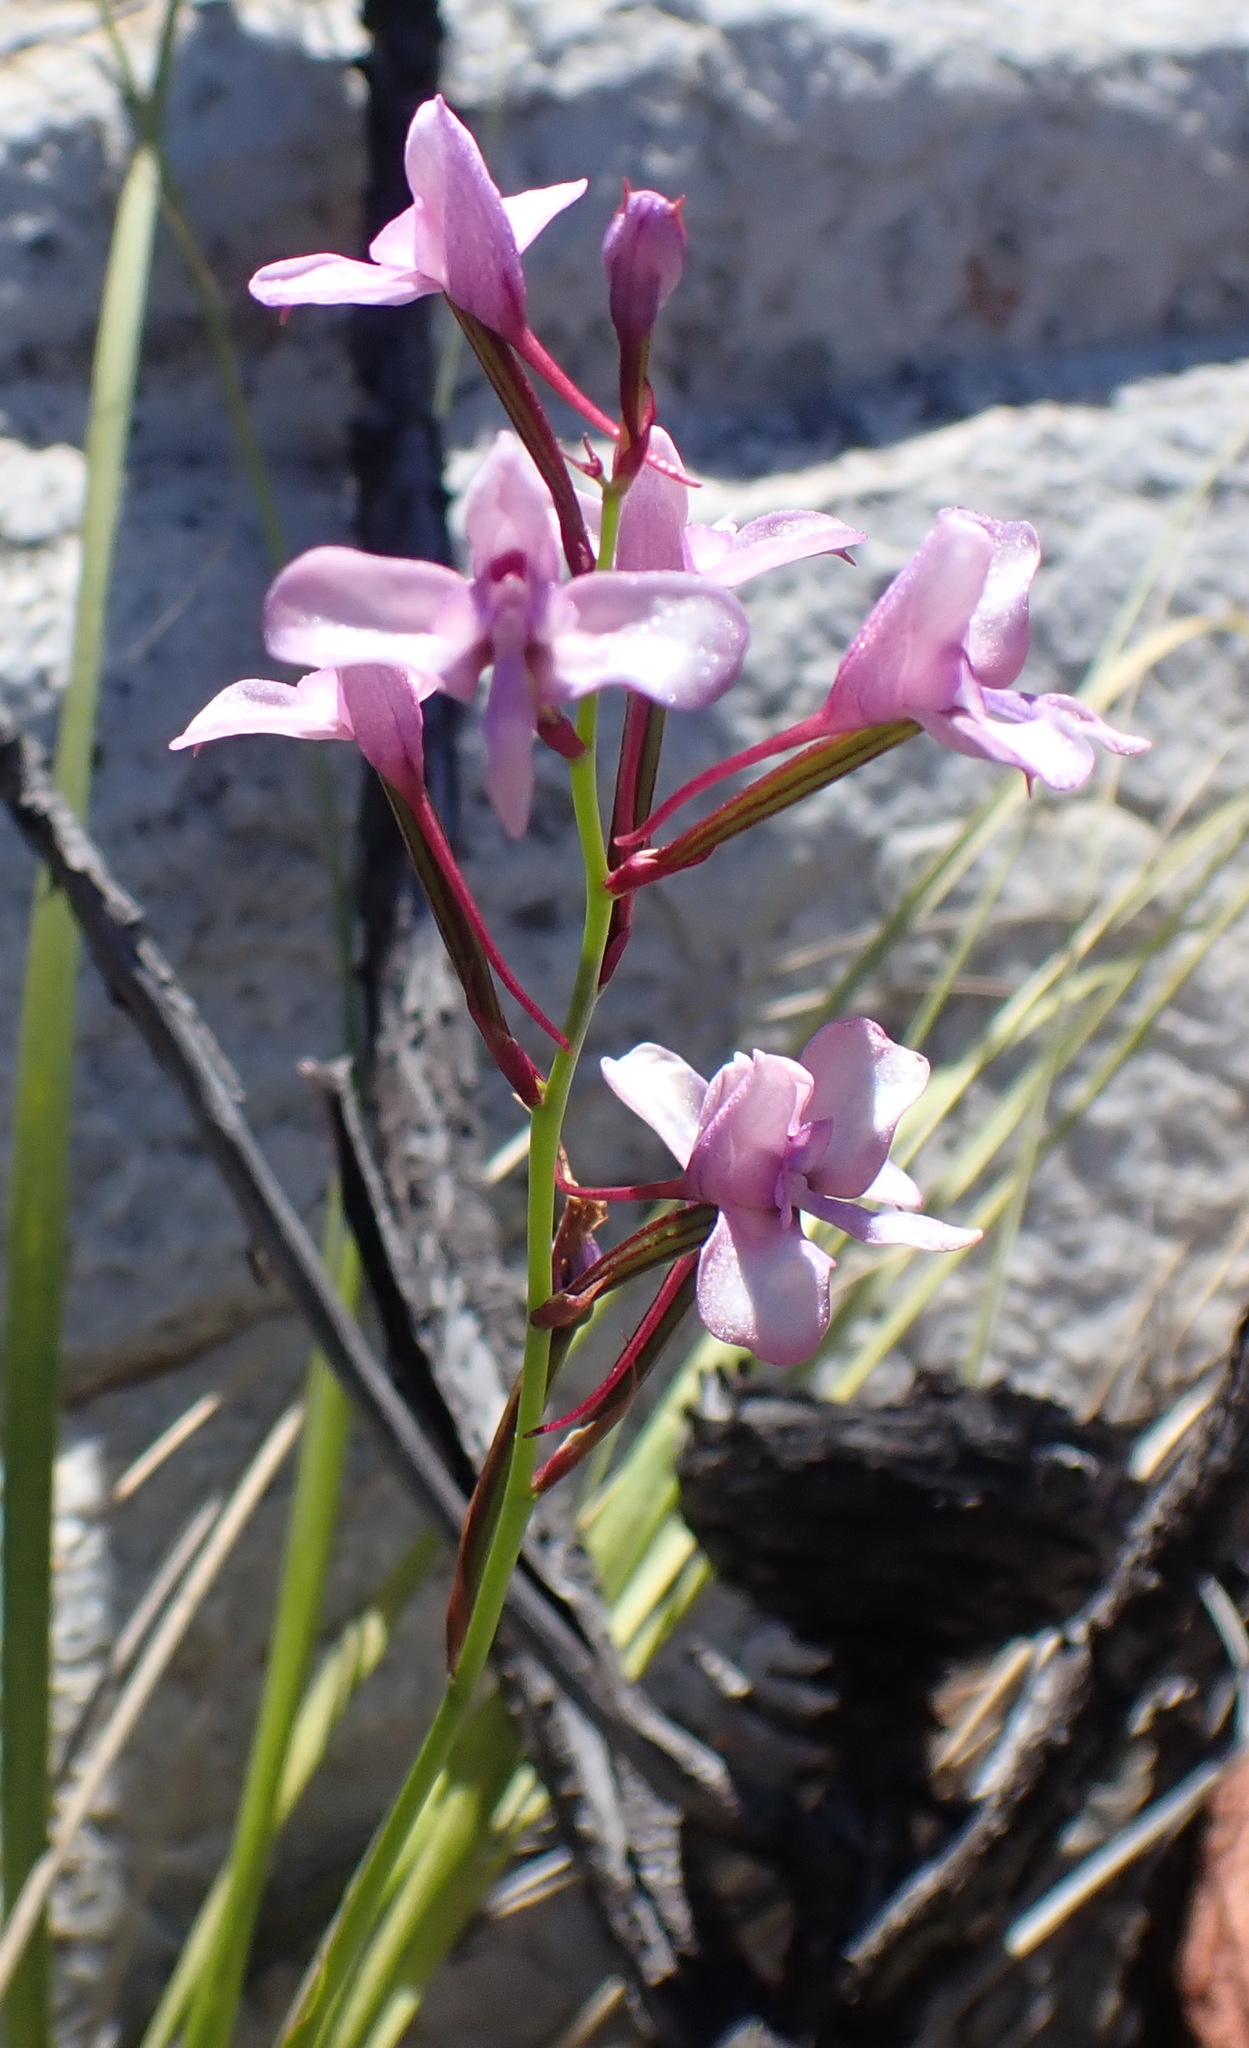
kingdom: Plantae
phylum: Tracheophyta
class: Liliopsida
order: Asparagales
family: Orchidaceae
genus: Disa
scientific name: Disa arida
